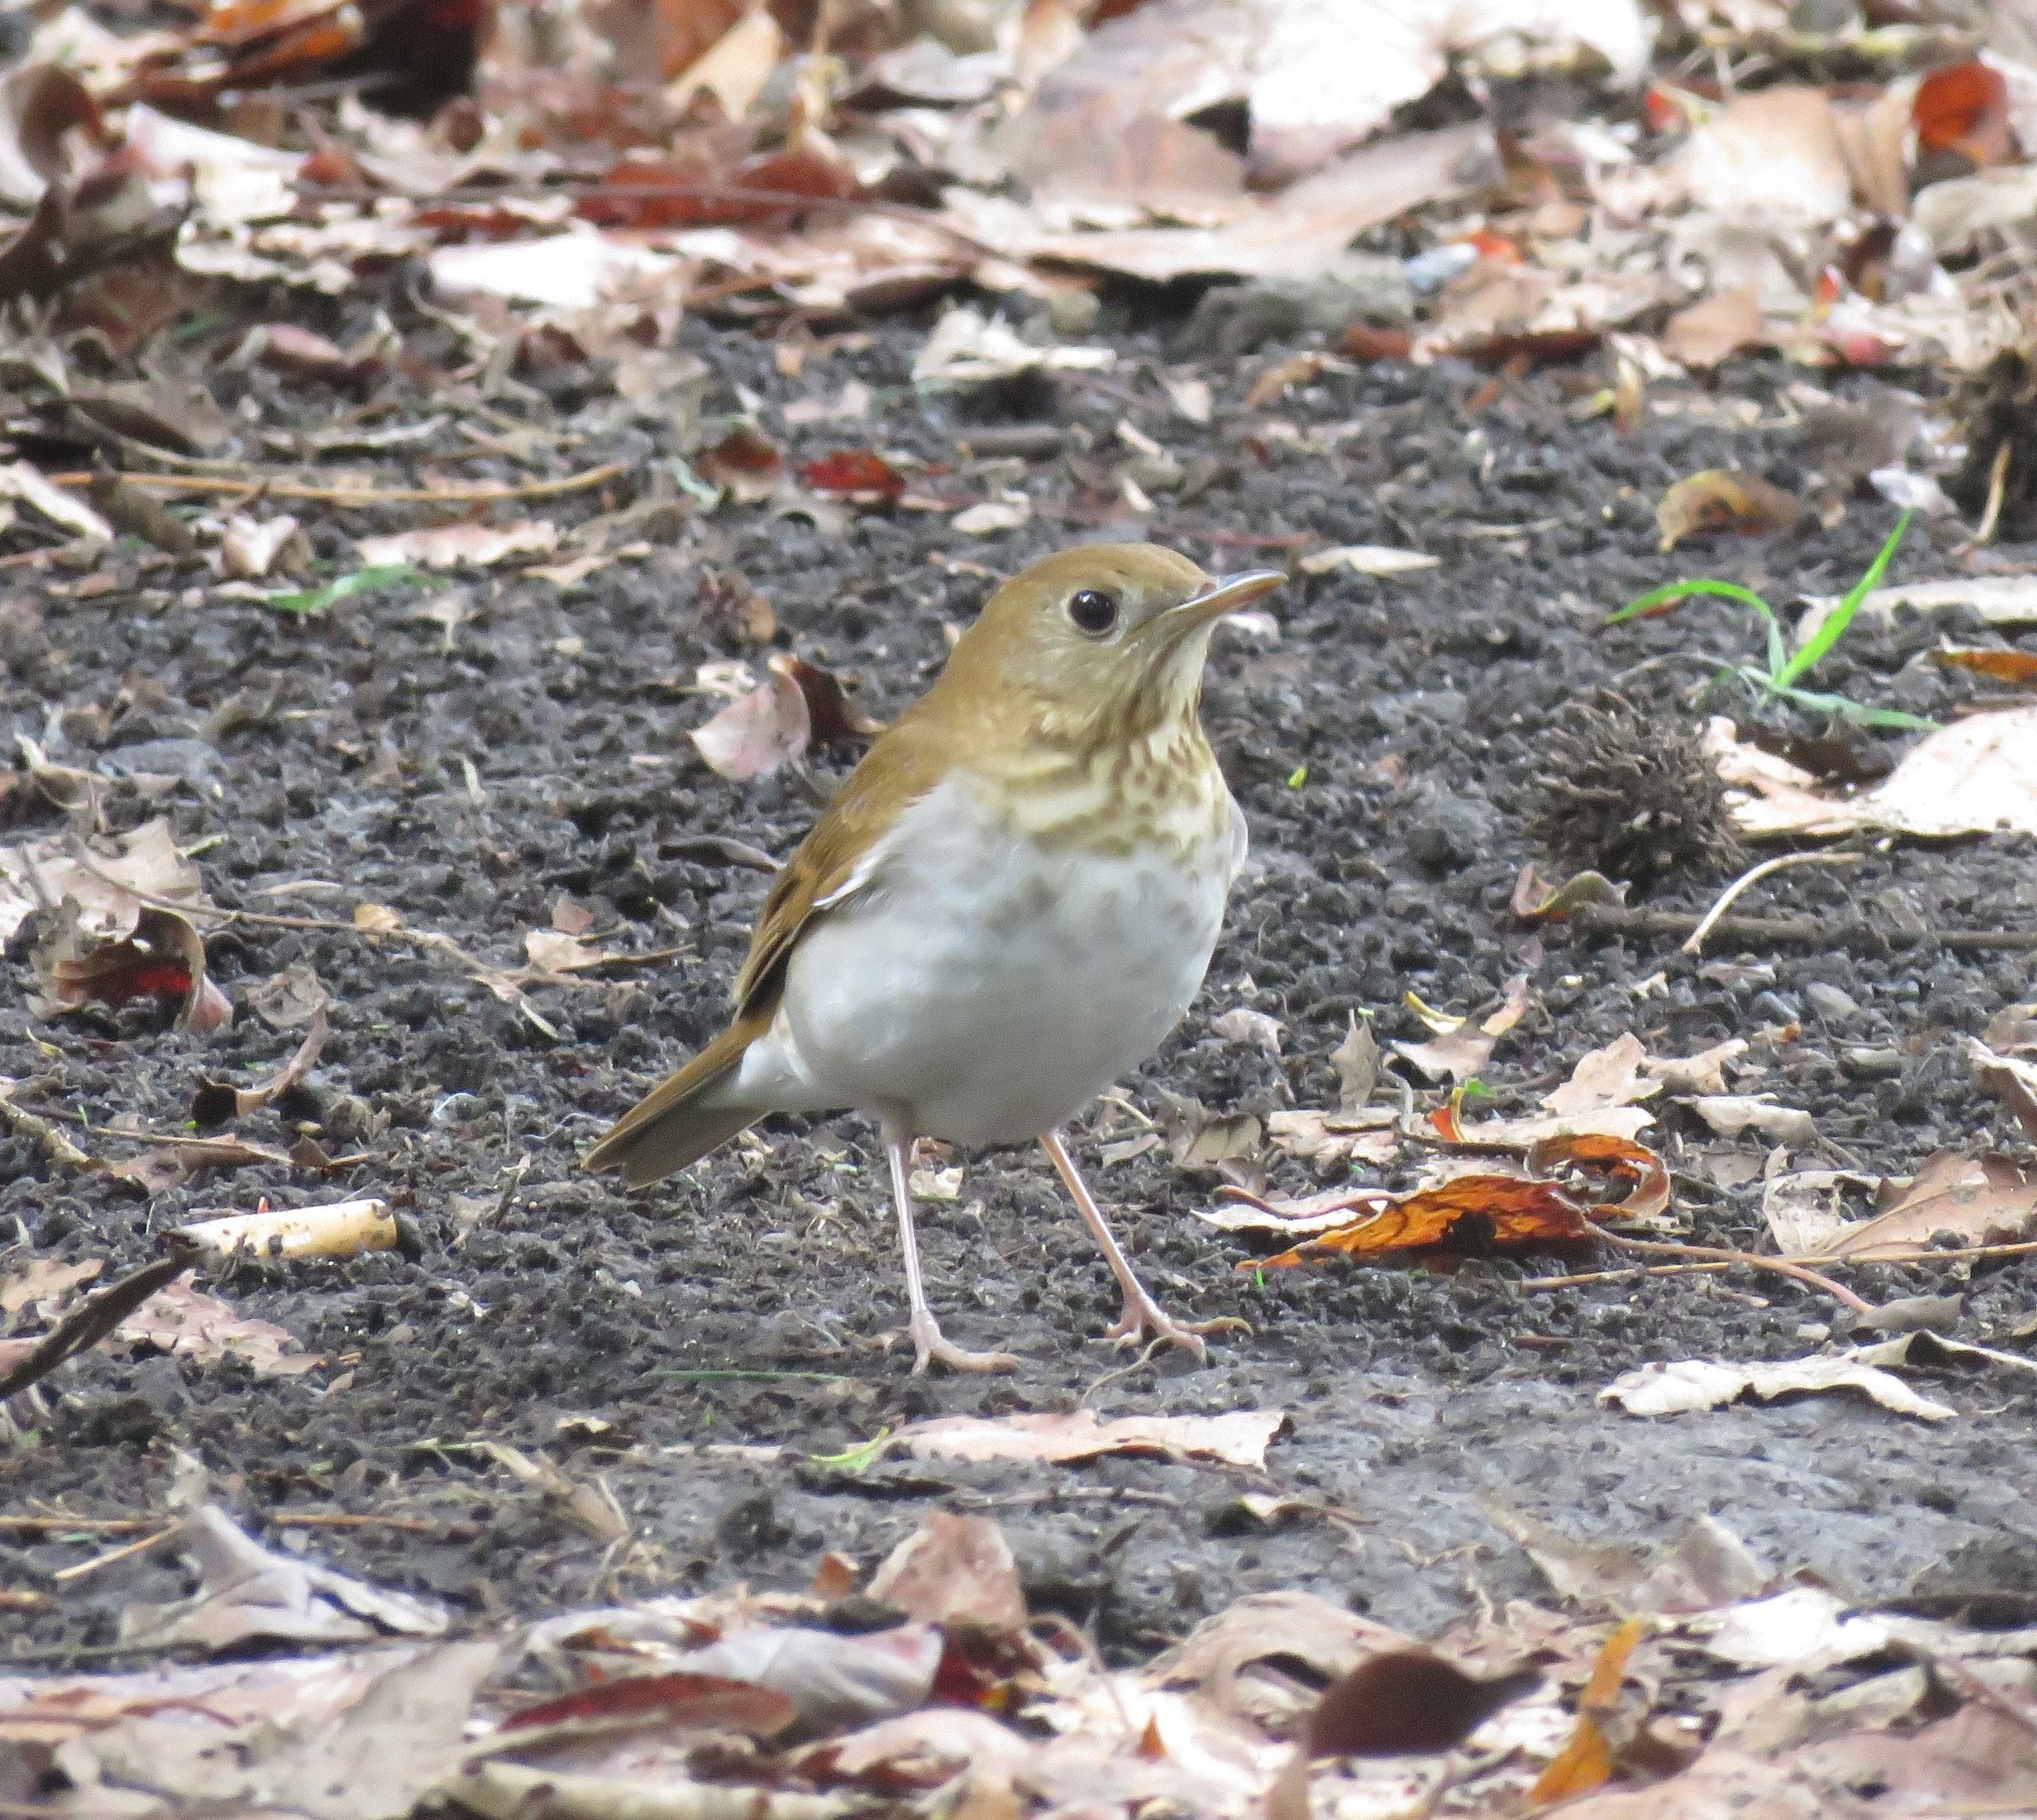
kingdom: Animalia
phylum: Chordata
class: Aves
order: Passeriformes
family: Turdidae
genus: Catharus
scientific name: Catharus fuscescens
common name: Veery
